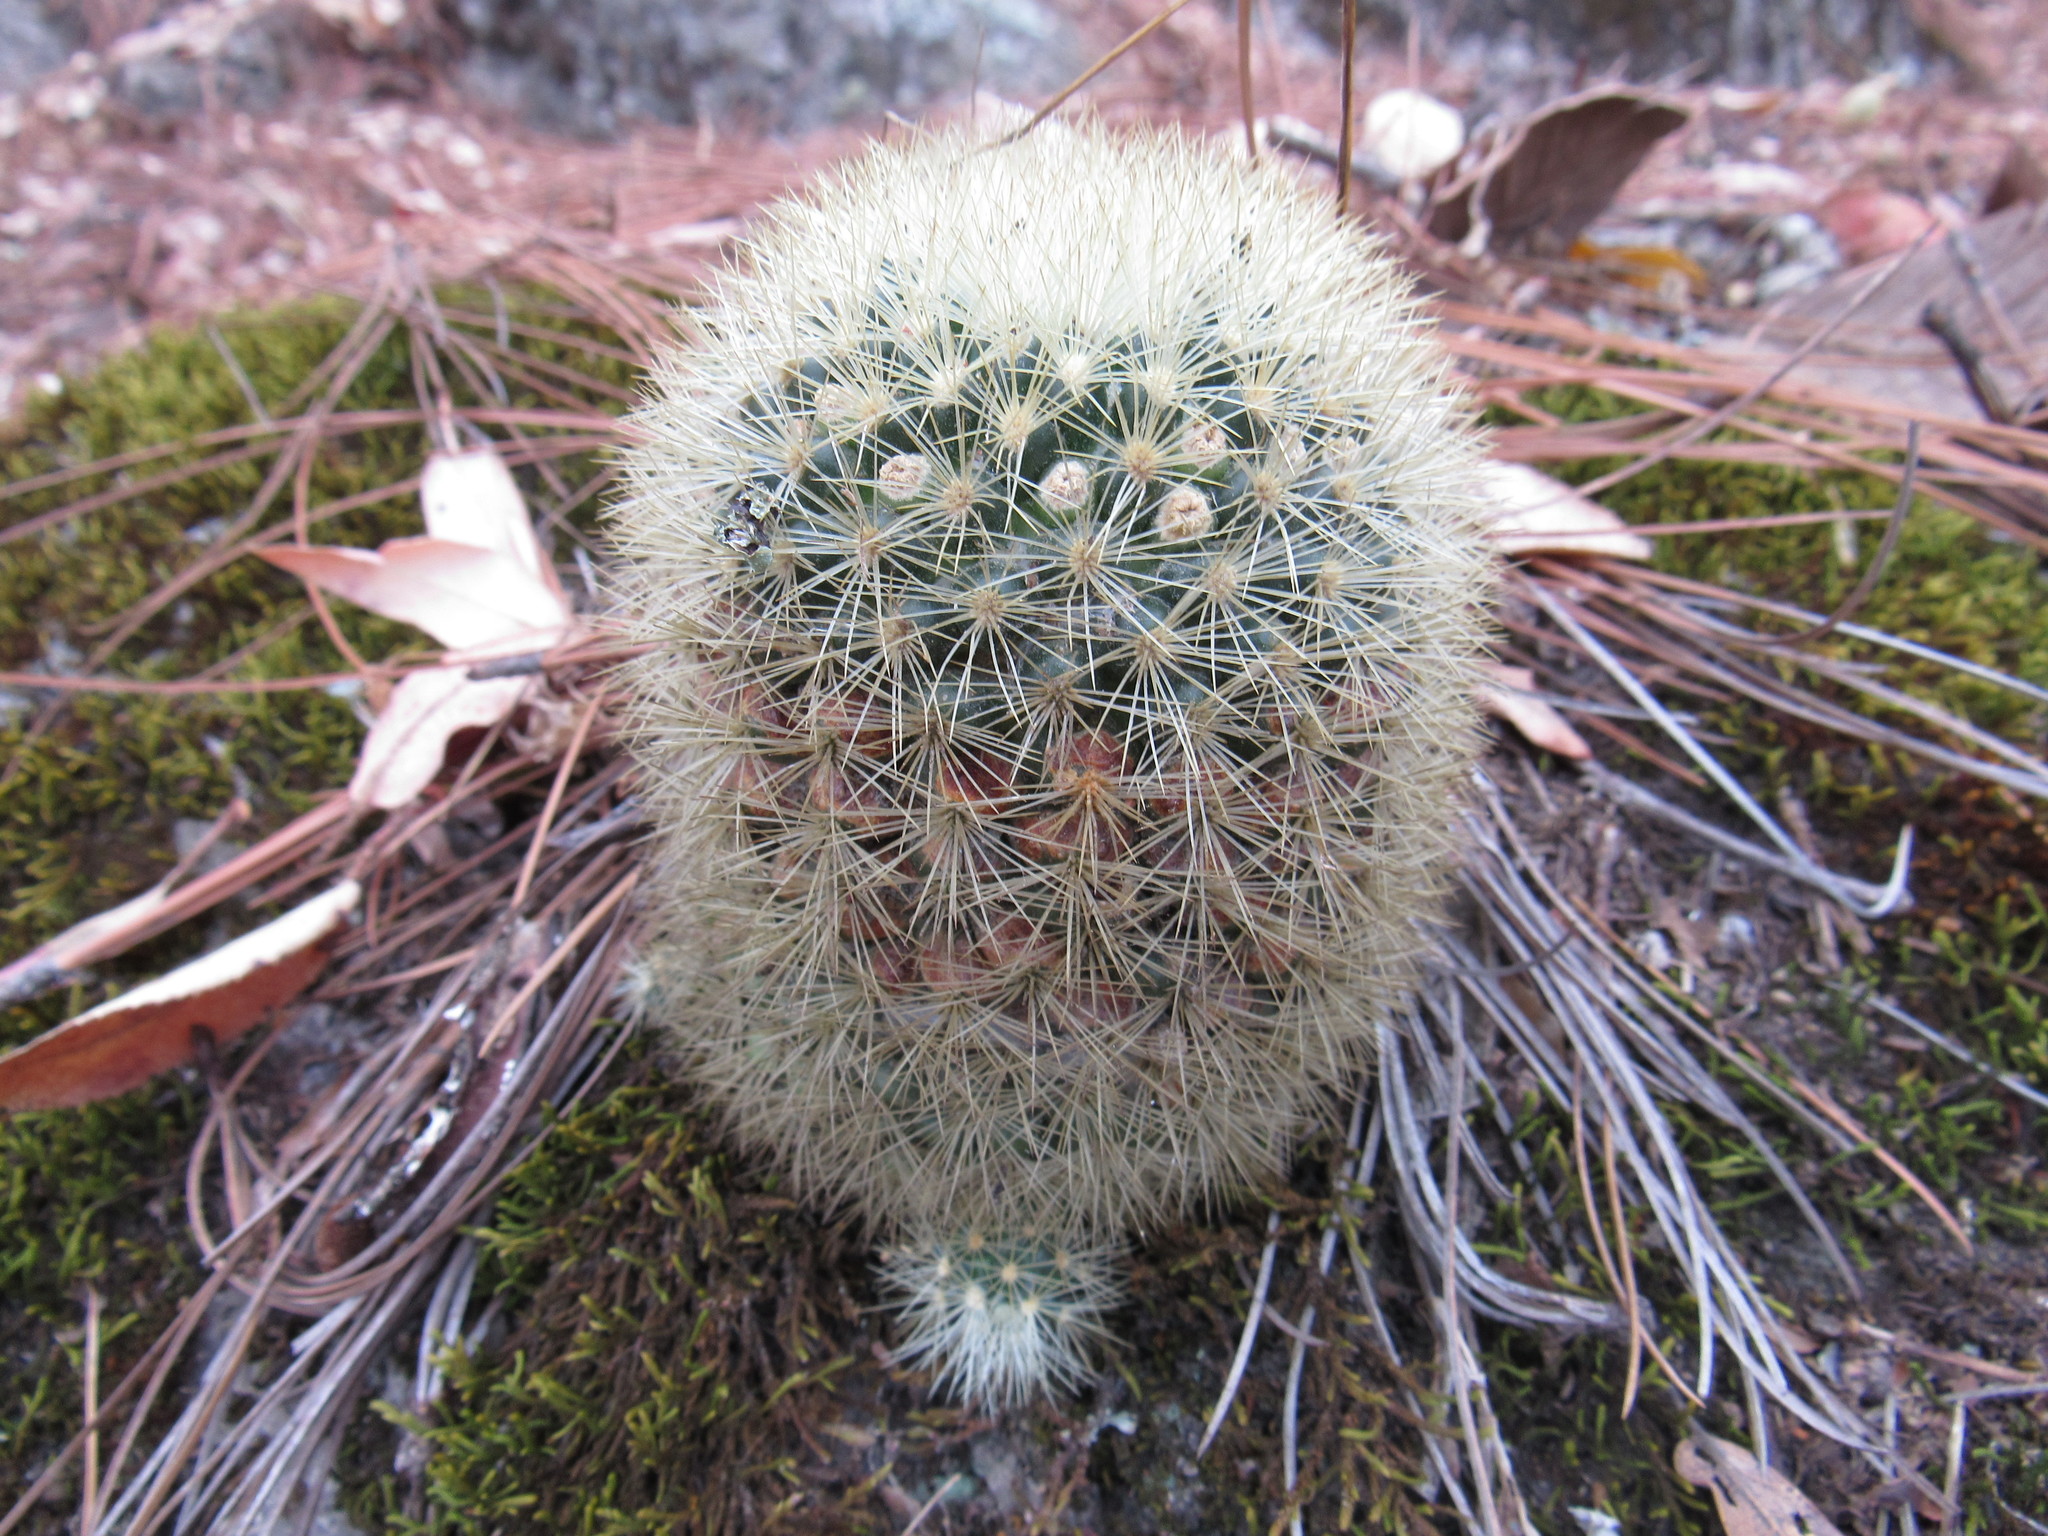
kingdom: Plantae
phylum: Tracheophyta
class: Magnoliopsida
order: Caryophyllales
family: Cactaceae
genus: Mammillaria
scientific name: Mammillaria densispina
